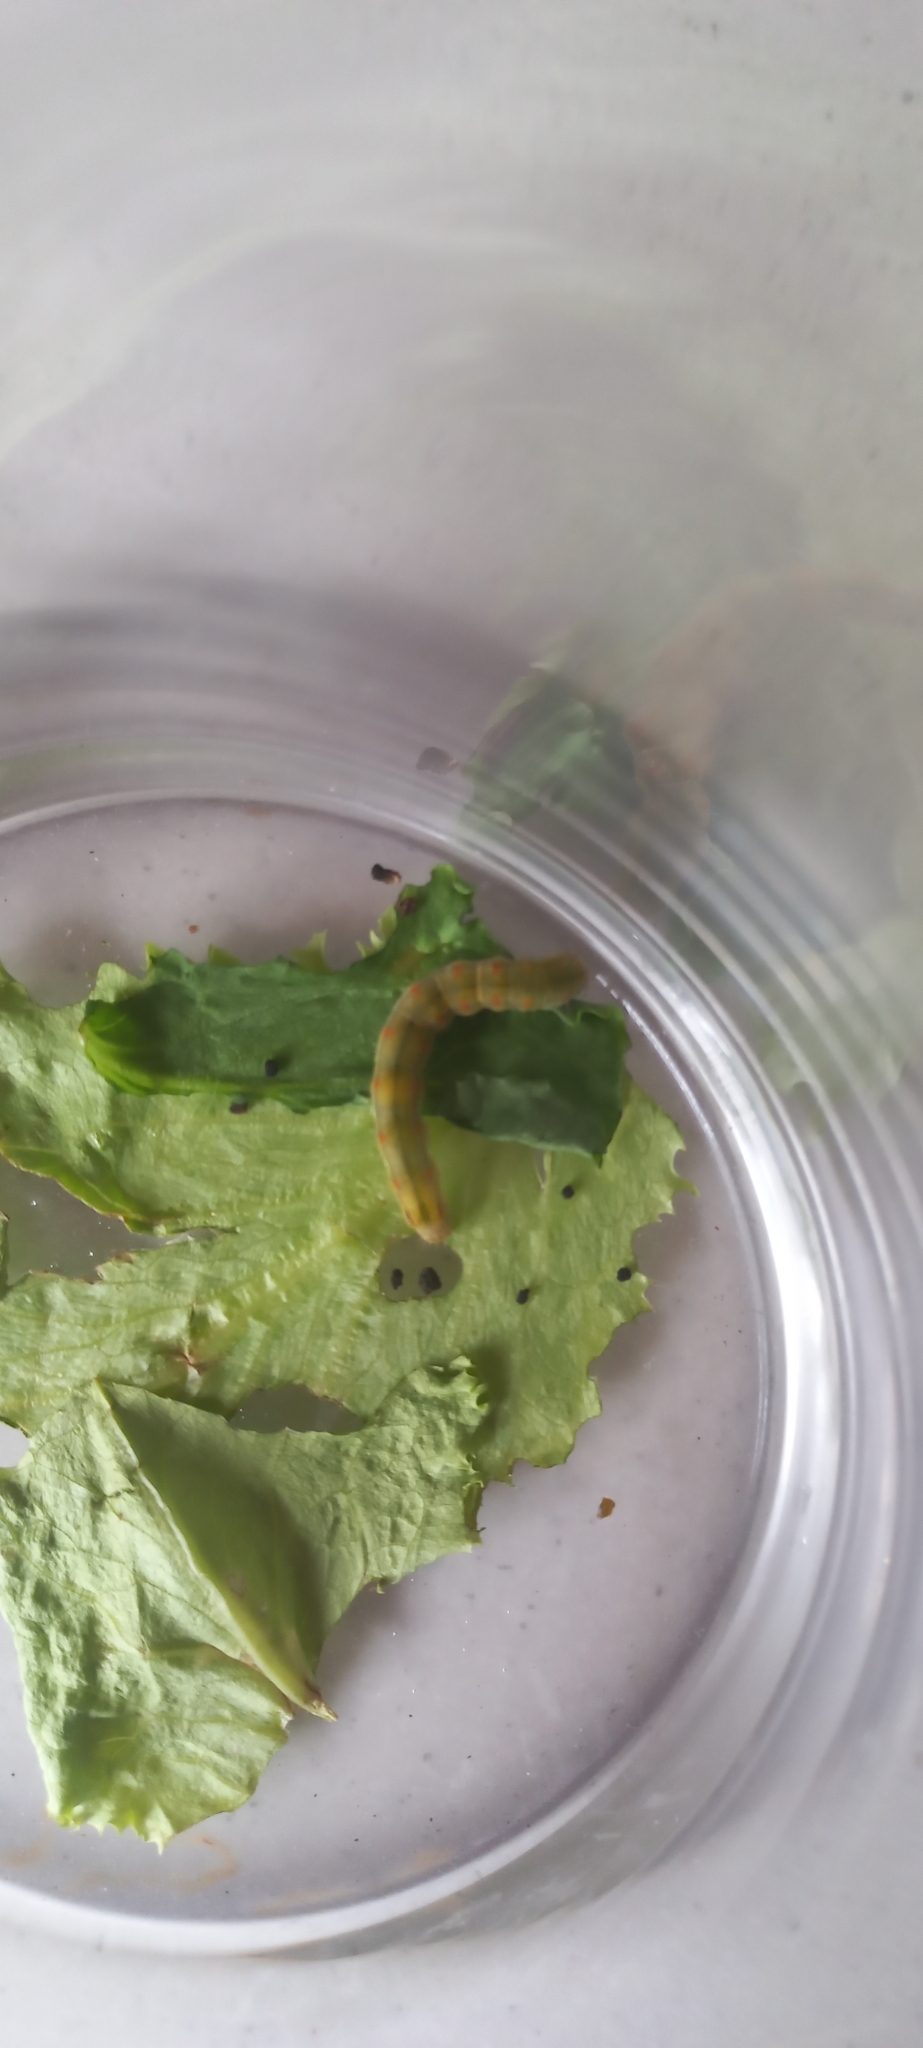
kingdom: Animalia
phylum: Arthropoda
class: Insecta
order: Lepidoptera
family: Noctuidae
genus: Helicoverpa
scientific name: Helicoverpa armigera
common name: Cotton bollworm
